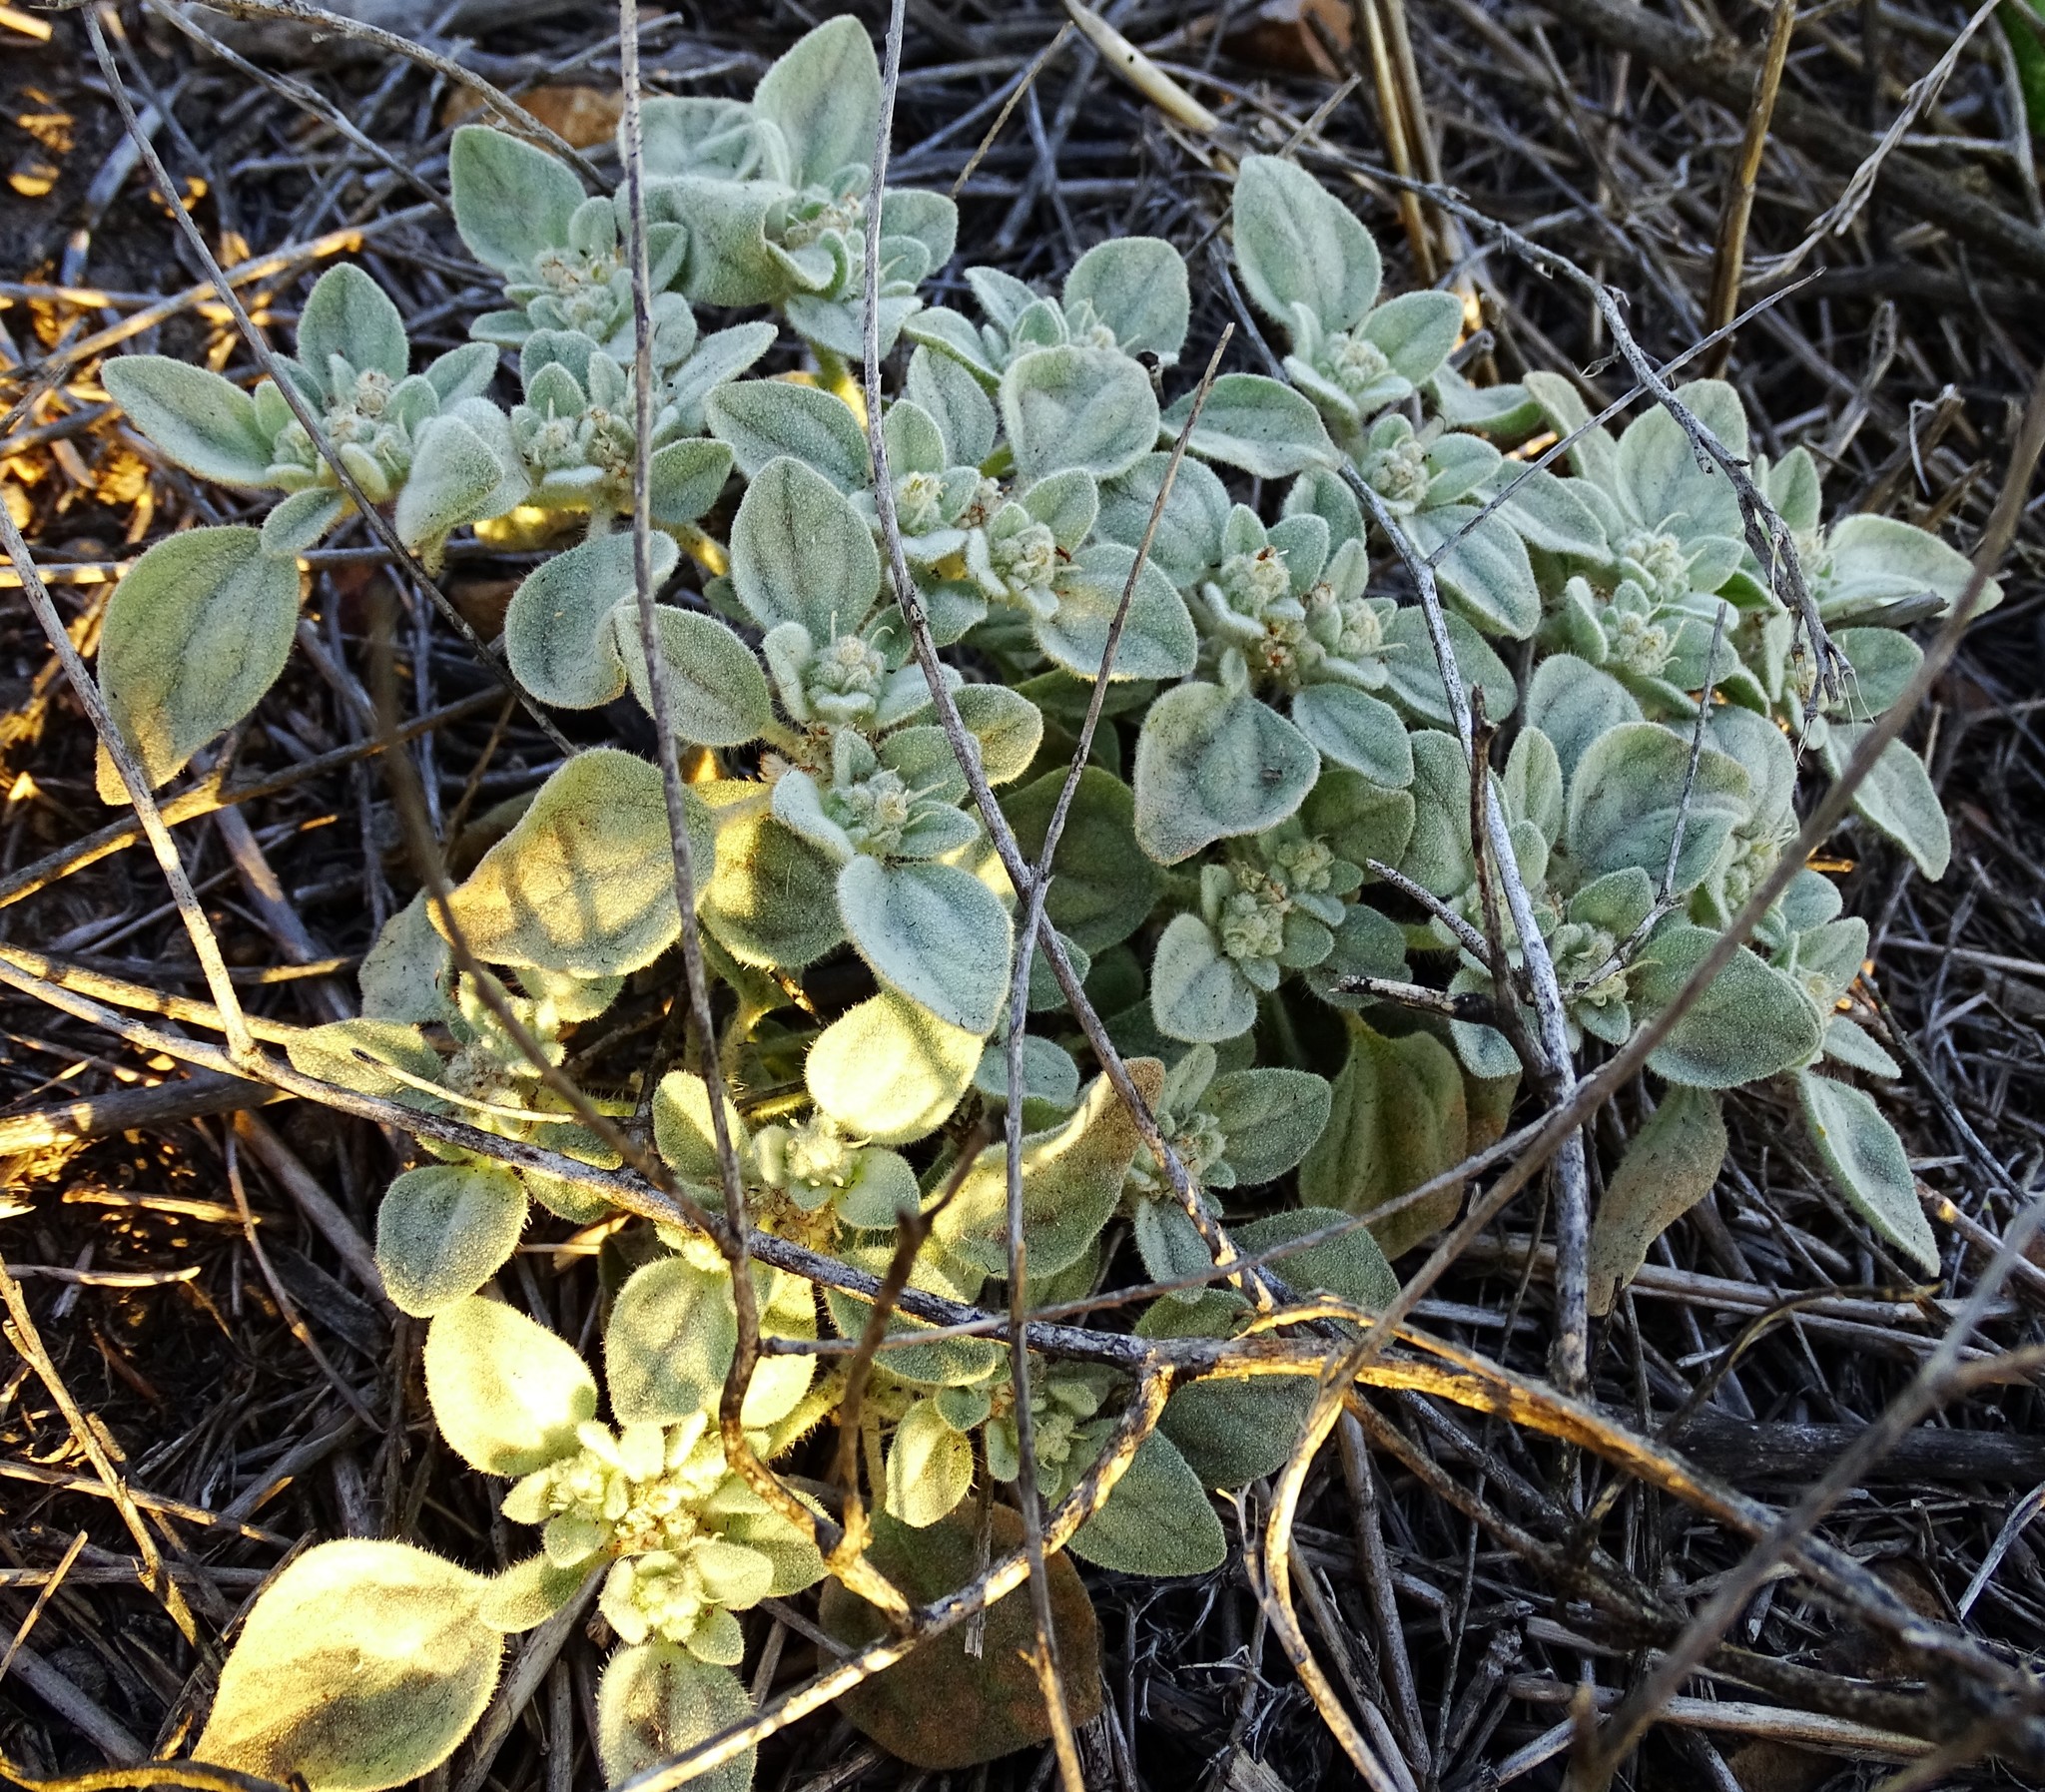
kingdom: Plantae
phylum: Tracheophyta
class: Magnoliopsida
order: Malpighiales
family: Euphorbiaceae
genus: Croton
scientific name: Croton setiger
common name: Dove weed
